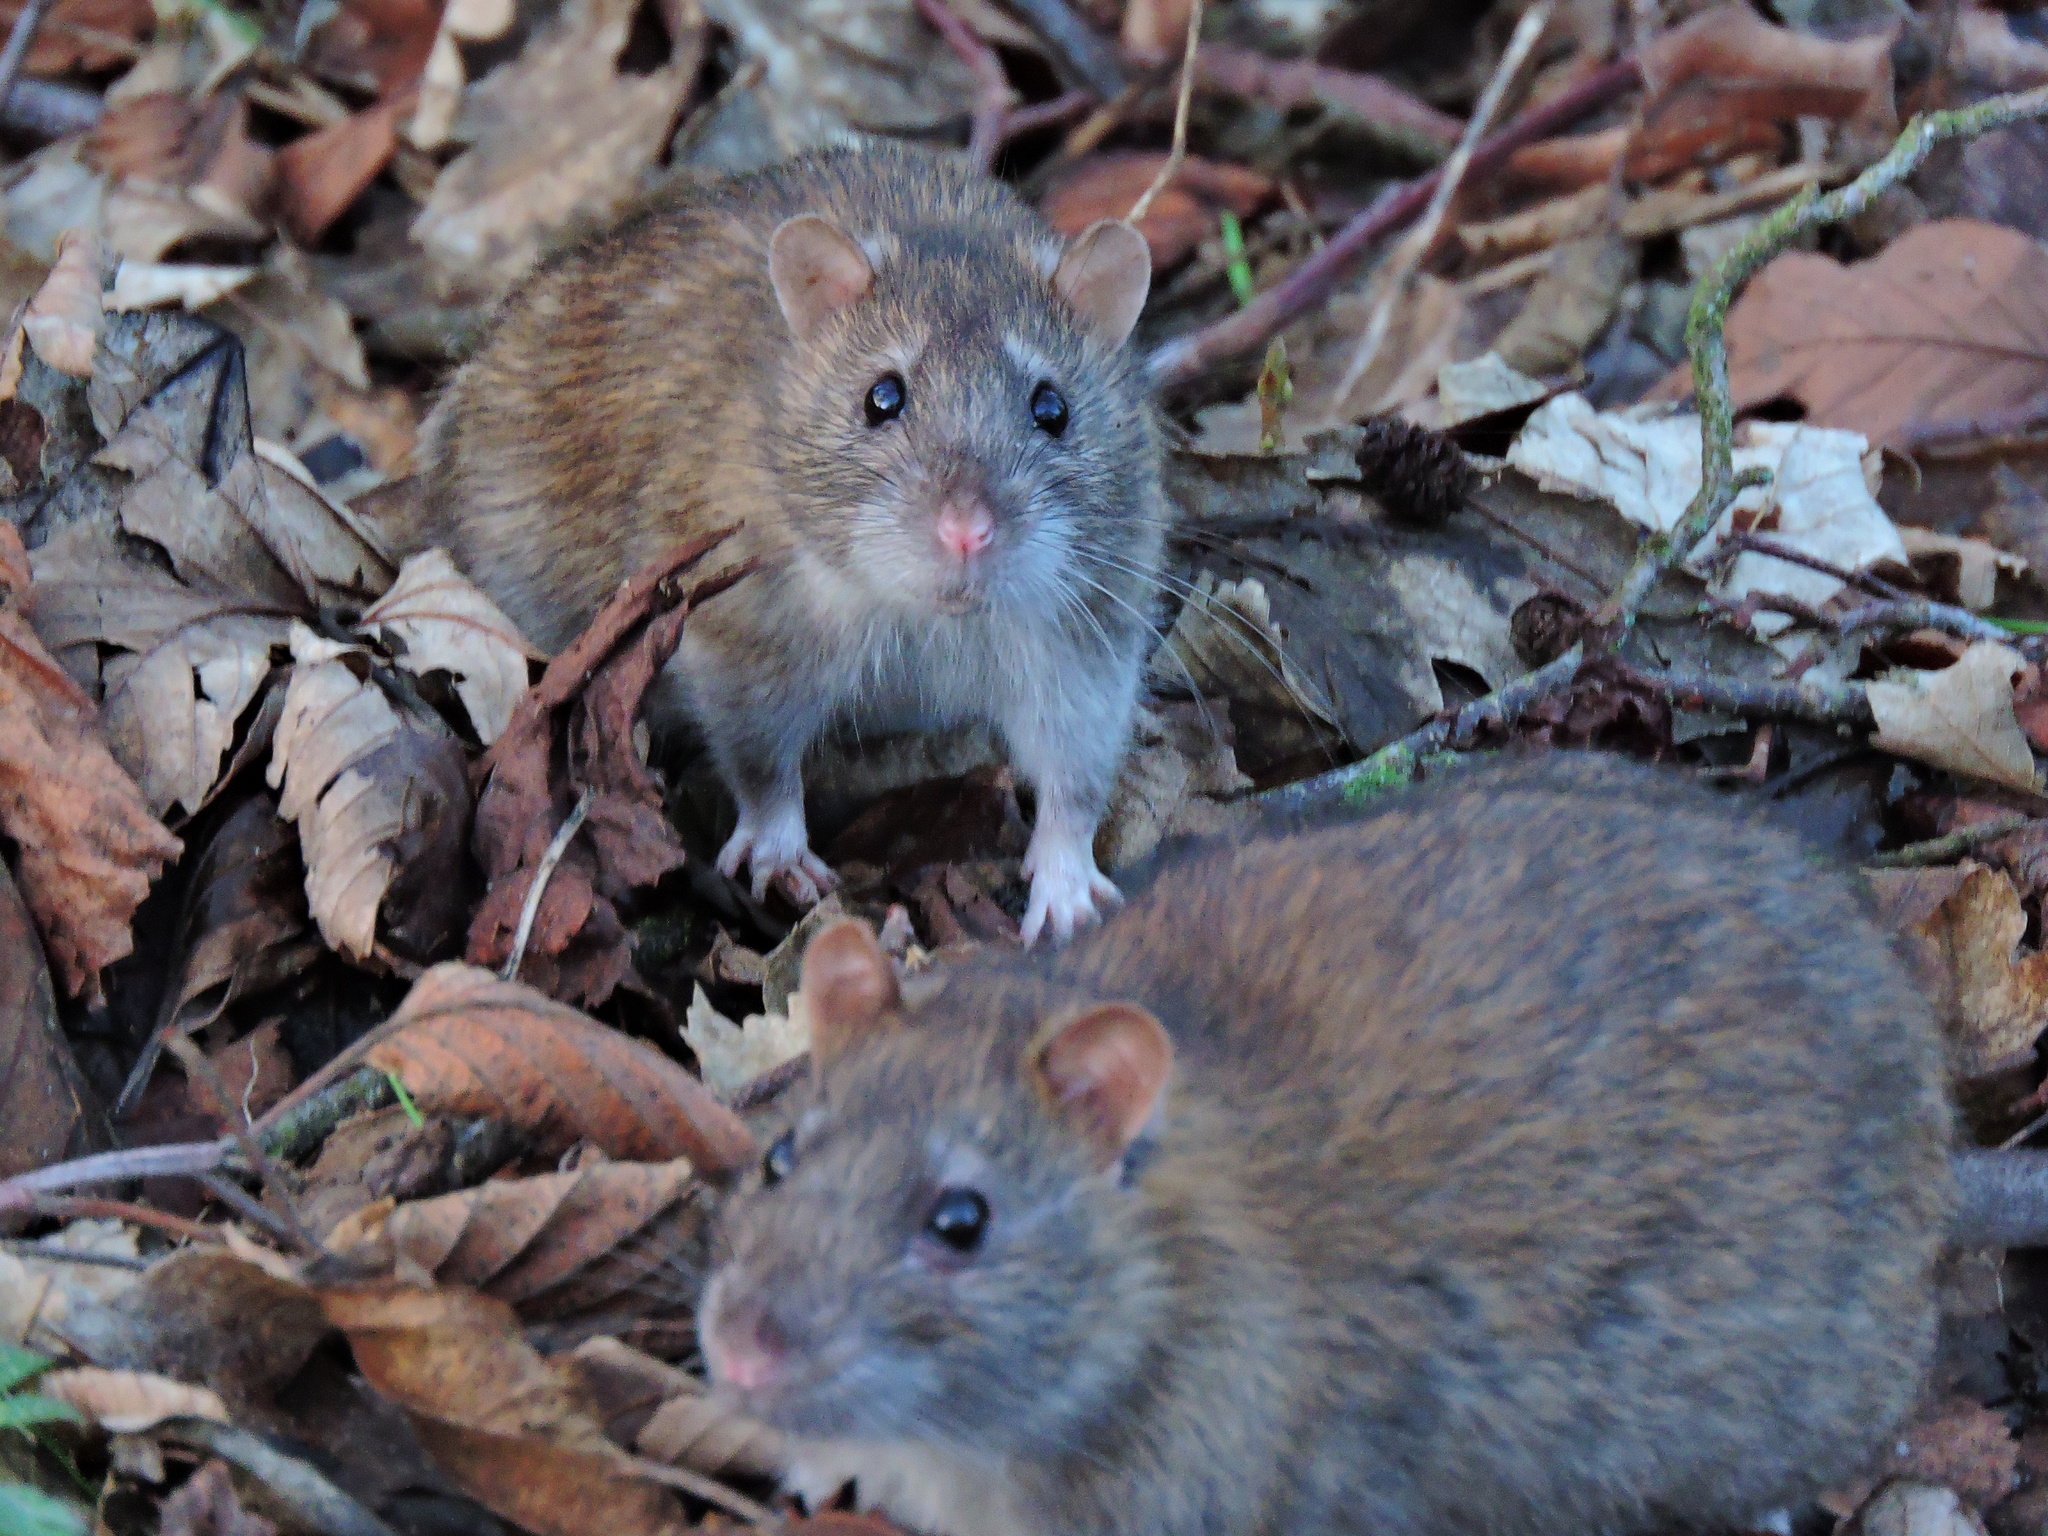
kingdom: Animalia
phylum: Chordata
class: Mammalia
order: Rodentia
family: Muridae
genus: Rattus
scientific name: Rattus norvegicus
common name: Brown rat
